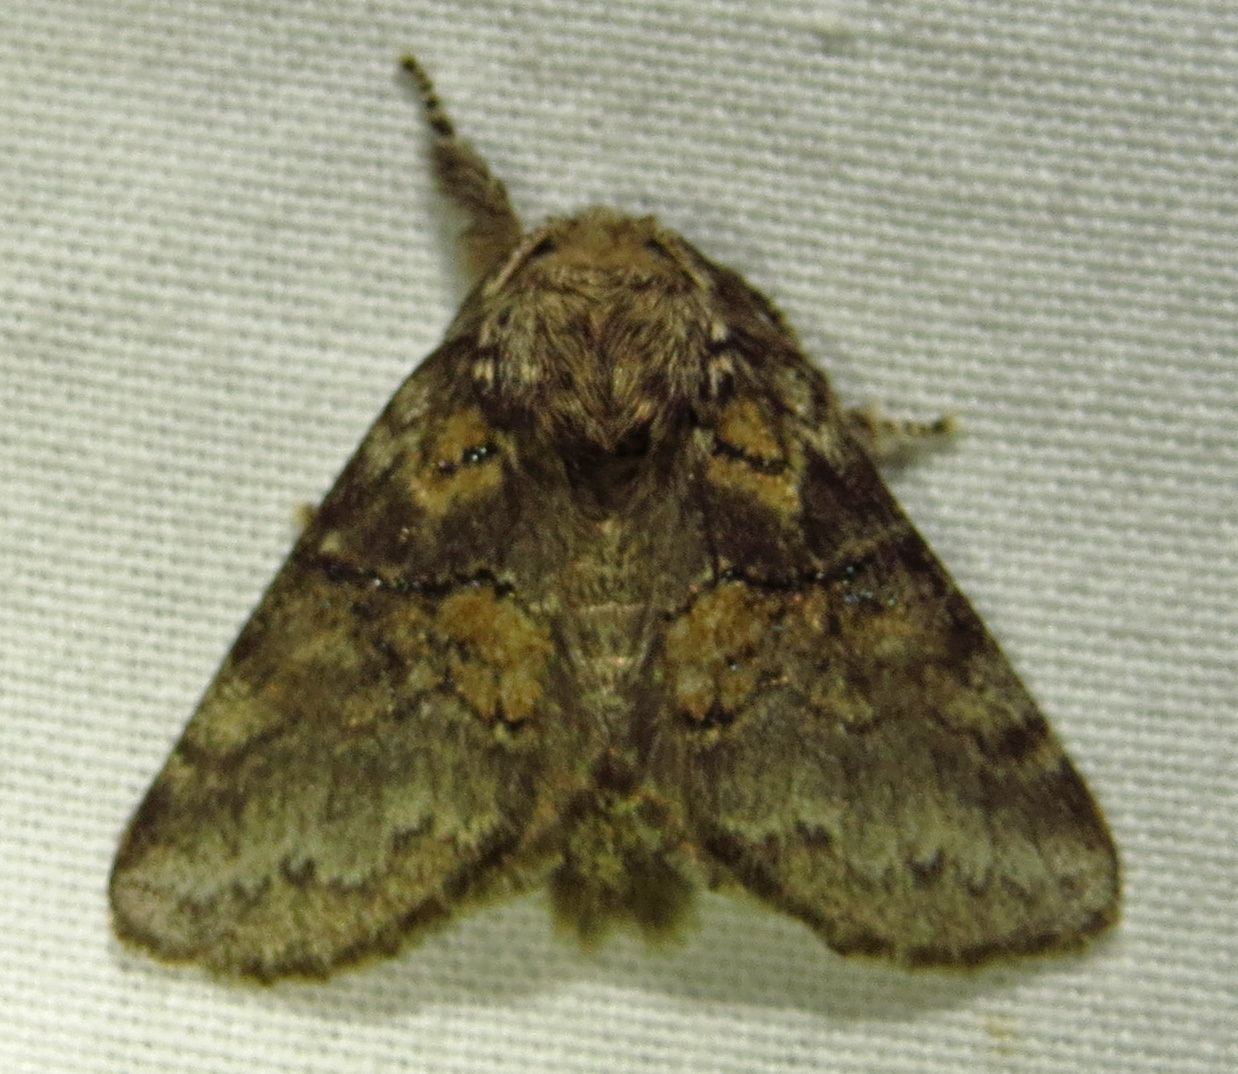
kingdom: Animalia
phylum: Arthropoda
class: Insecta
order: Lepidoptera
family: Notodontidae
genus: Gluphisia
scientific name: Gluphisia septentrionis
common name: Common gluphisia
